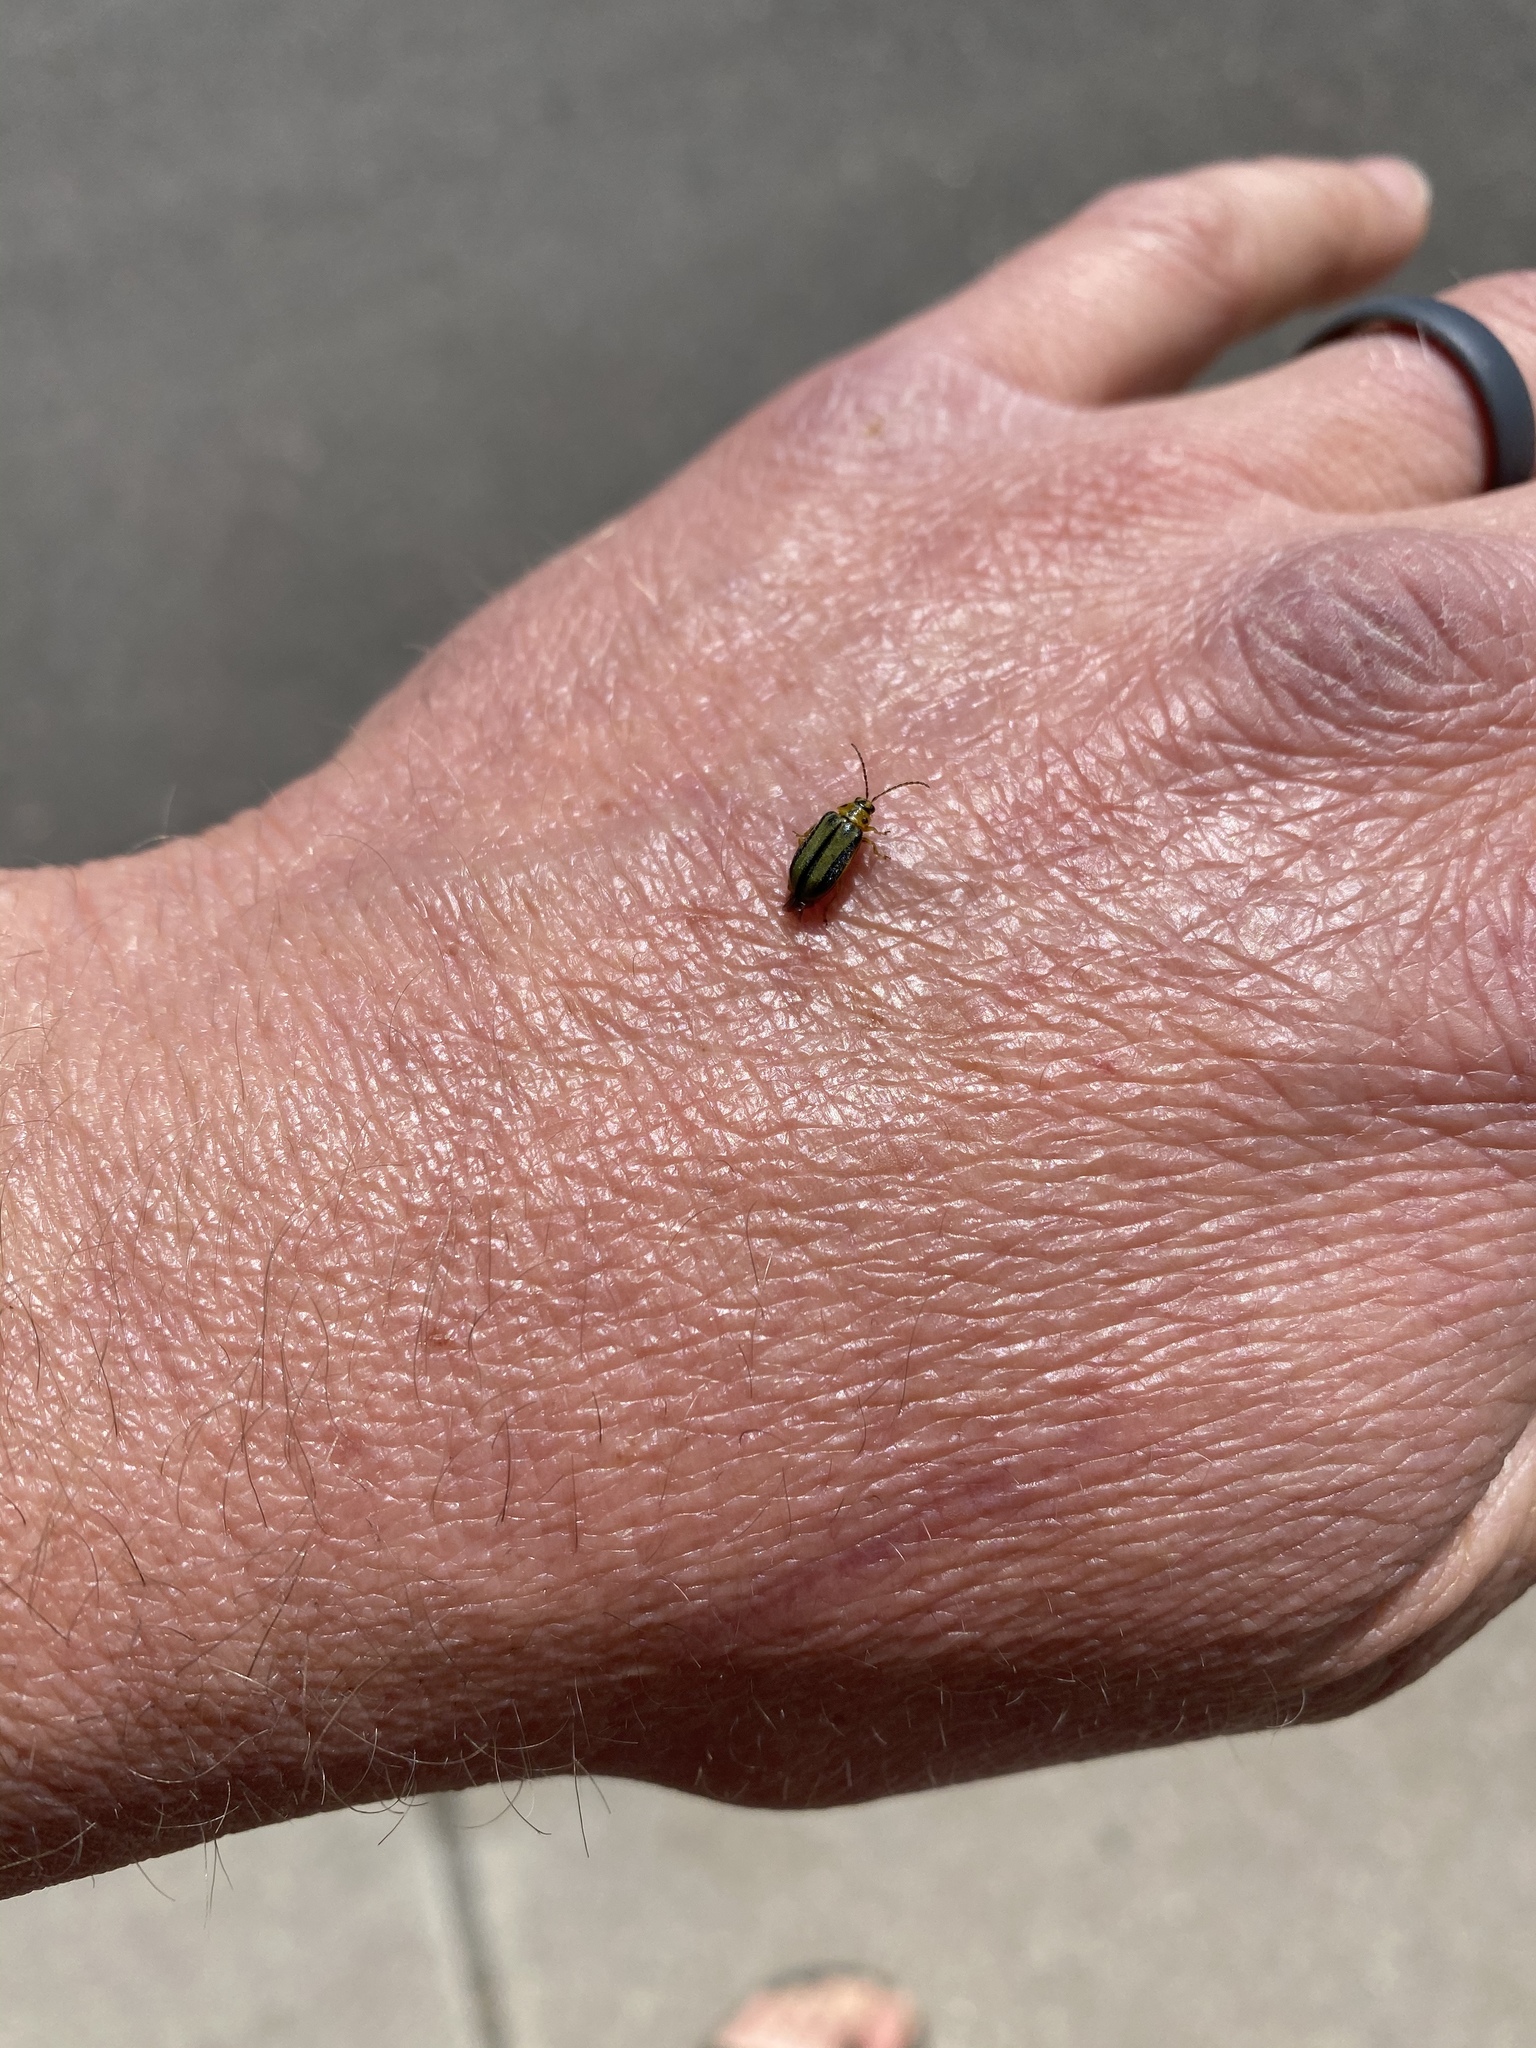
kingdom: Animalia
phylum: Arthropoda
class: Insecta
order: Coleoptera
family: Chrysomelidae
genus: Xanthogaleruca
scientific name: Xanthogaleruca luteola
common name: Elm leaf beetle
